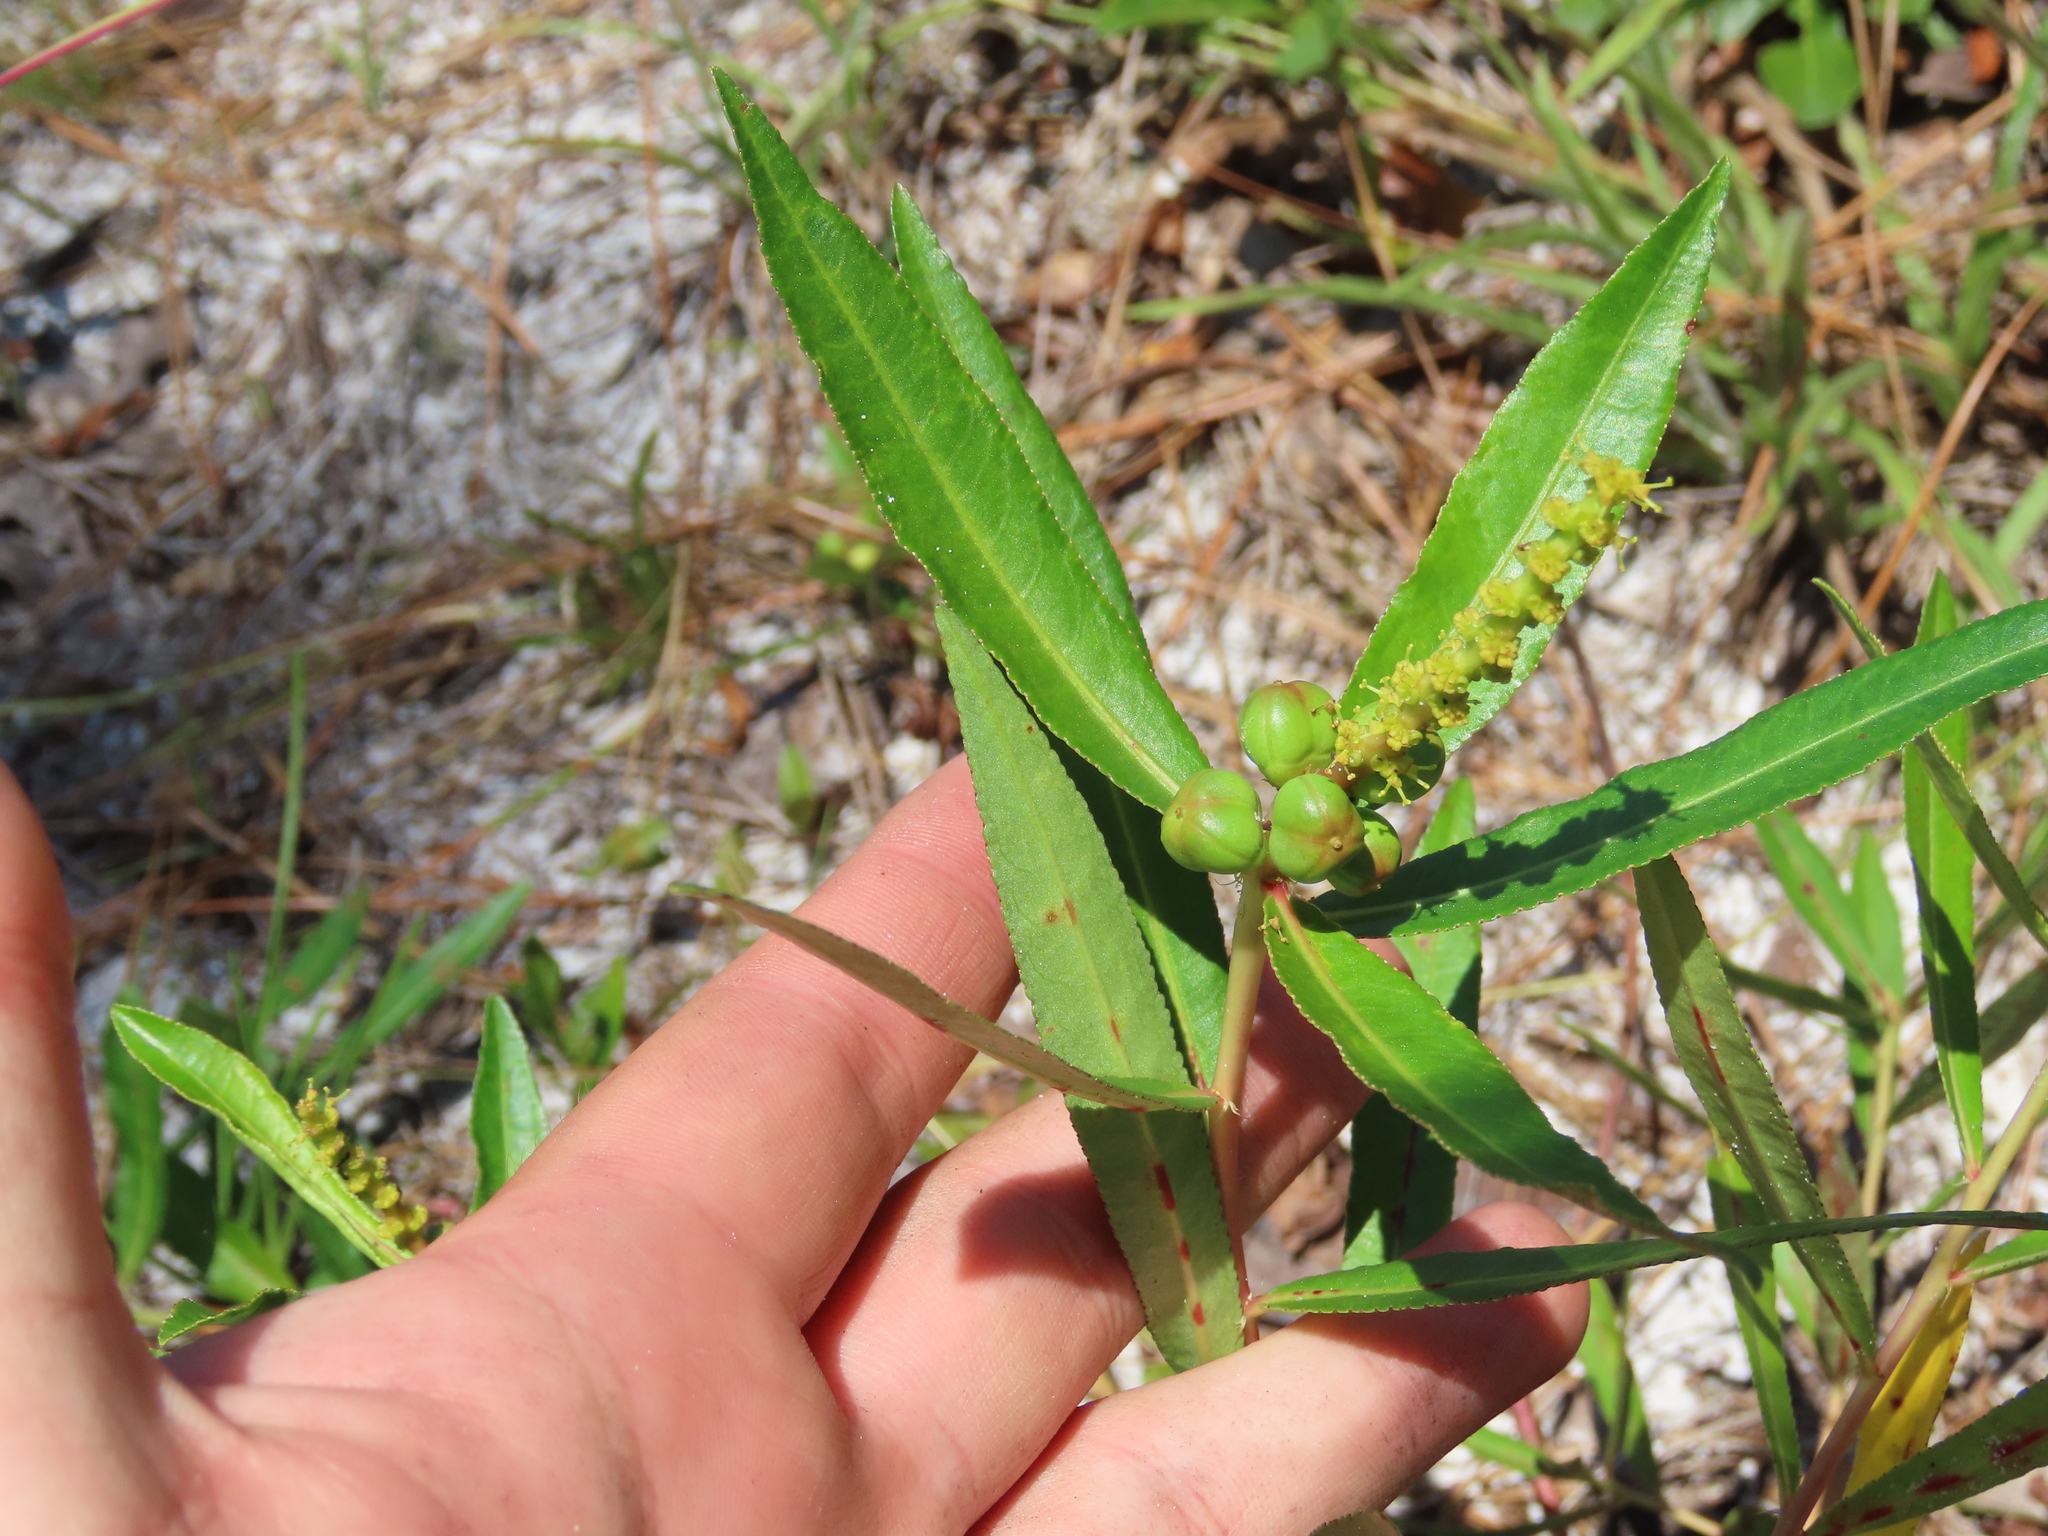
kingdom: Plantae
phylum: Tracheophyta
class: Magnoliopsida
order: Malpighiales
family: Euphorbiaceae
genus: Stillingia
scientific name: Stillingia sylvatica
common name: Queen's-delight
